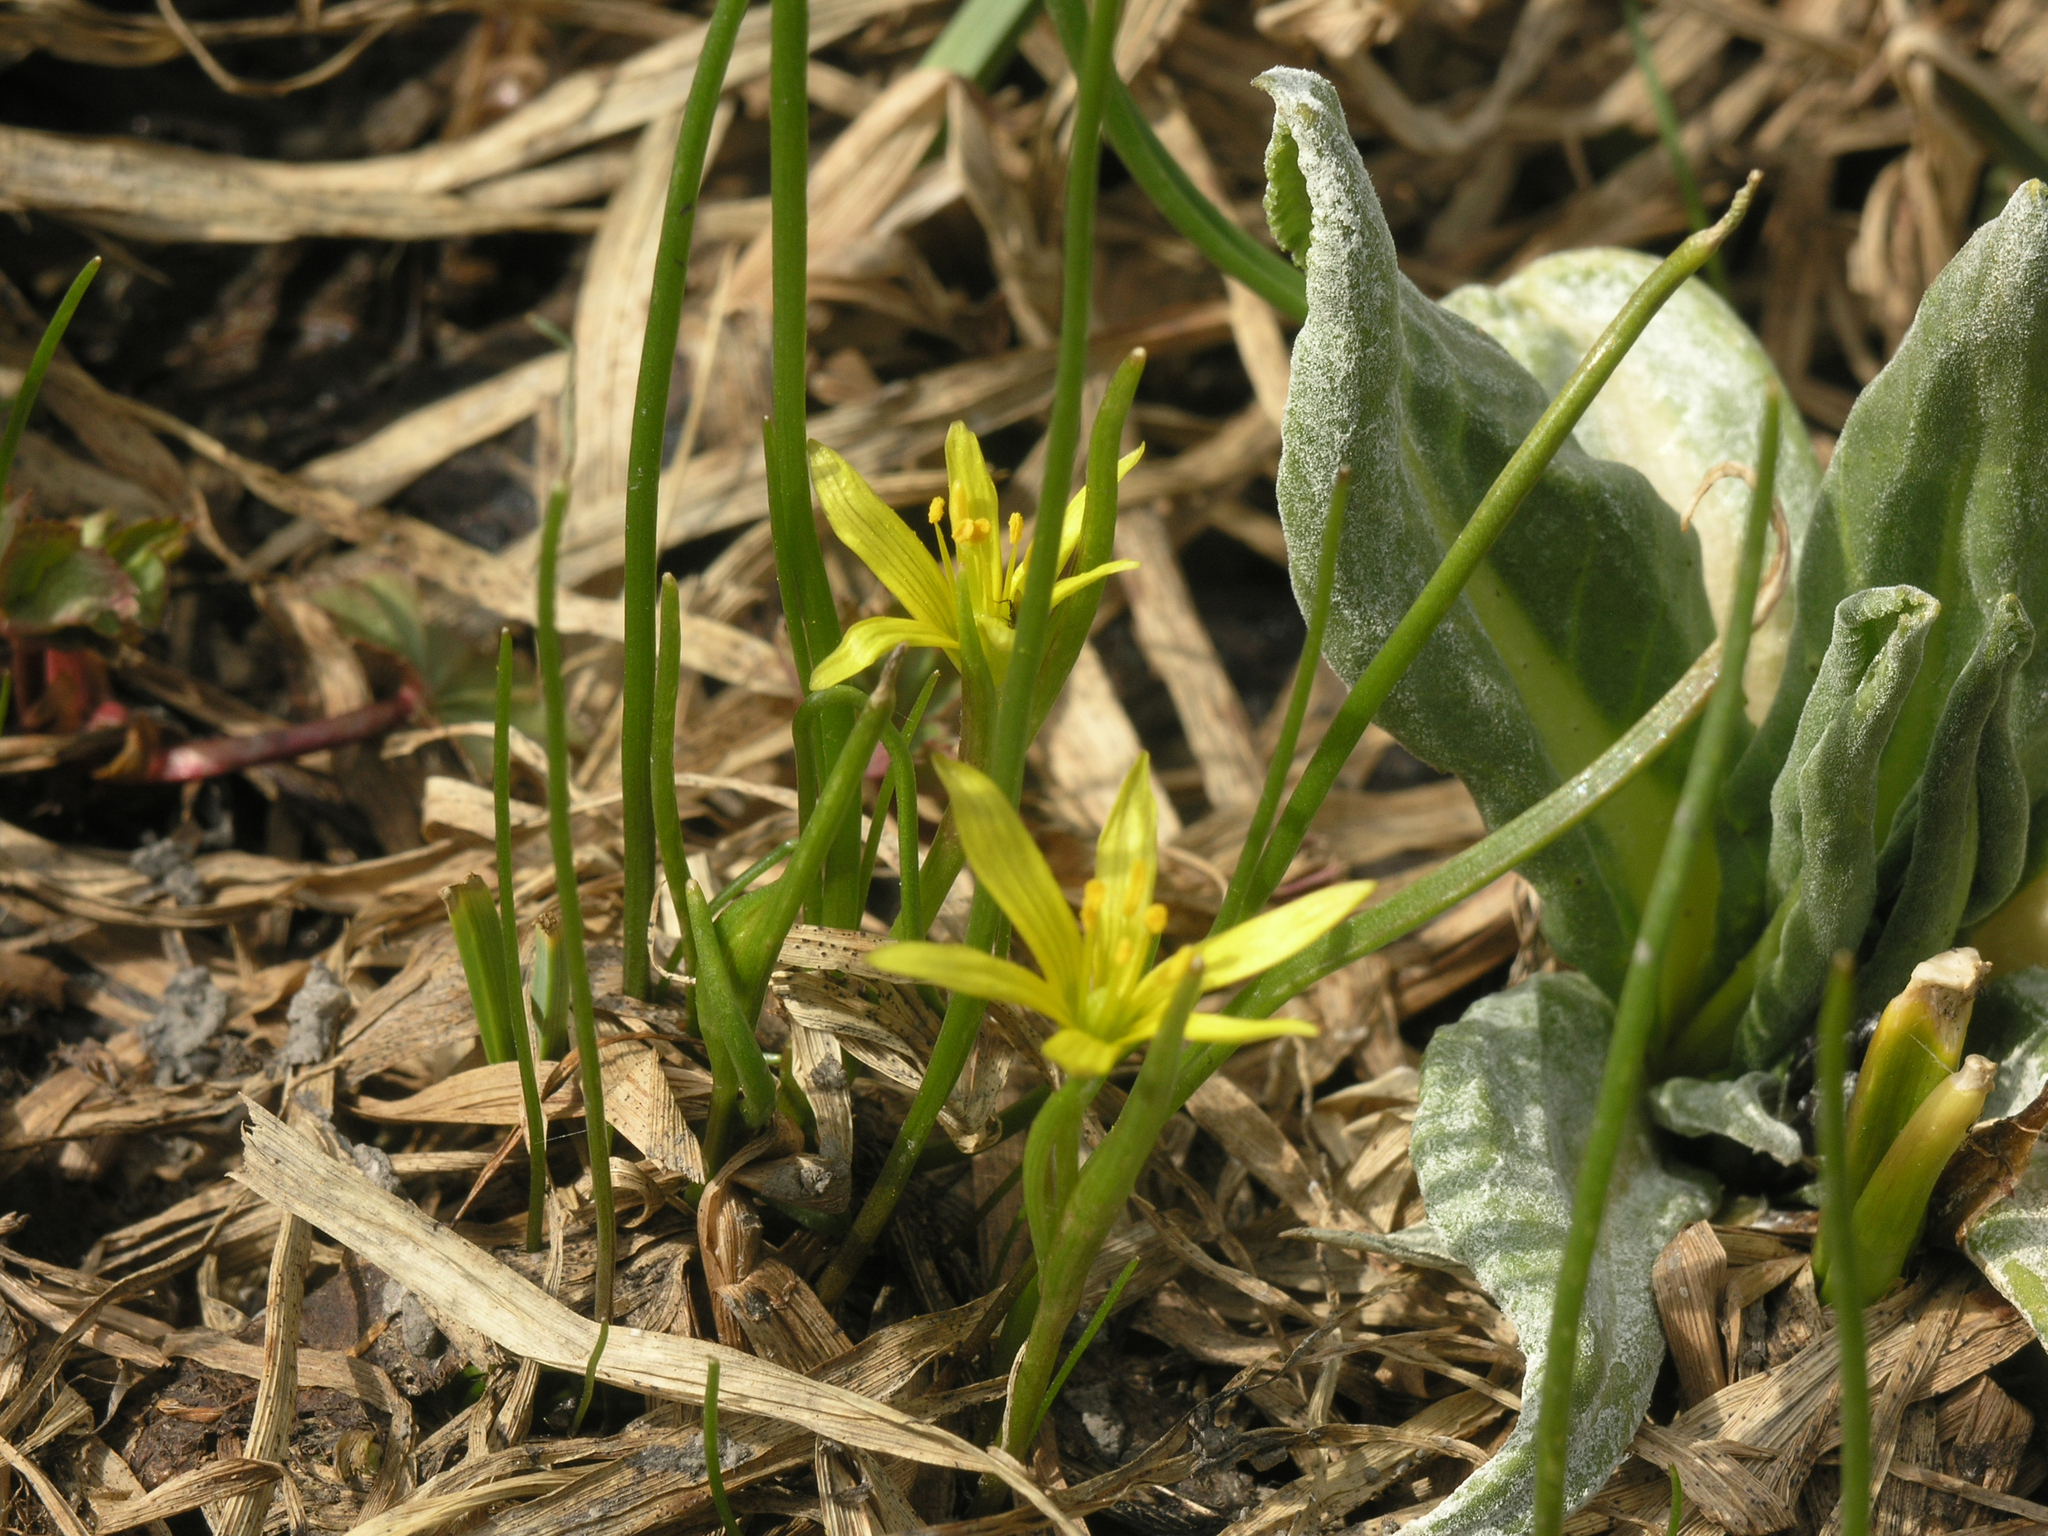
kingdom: Plantae
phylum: Tracheophyta
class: Liliopsida
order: Liliales
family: Liliaceae
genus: Gagea
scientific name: Gagea fragifera
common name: Lily
